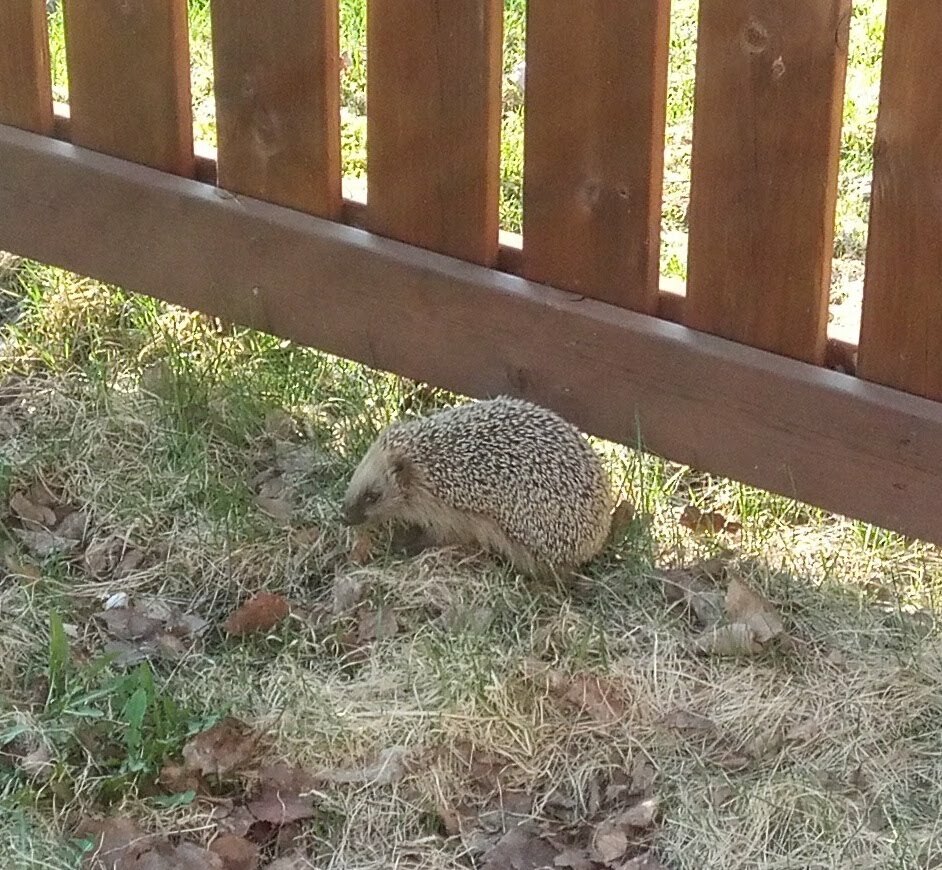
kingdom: Animalia
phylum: Chordata
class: Mammalia
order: Erinaceomorpha
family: Erinaceidae
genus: Erinaceus
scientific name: Erinaceus europaeus
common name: West european hedgehog
